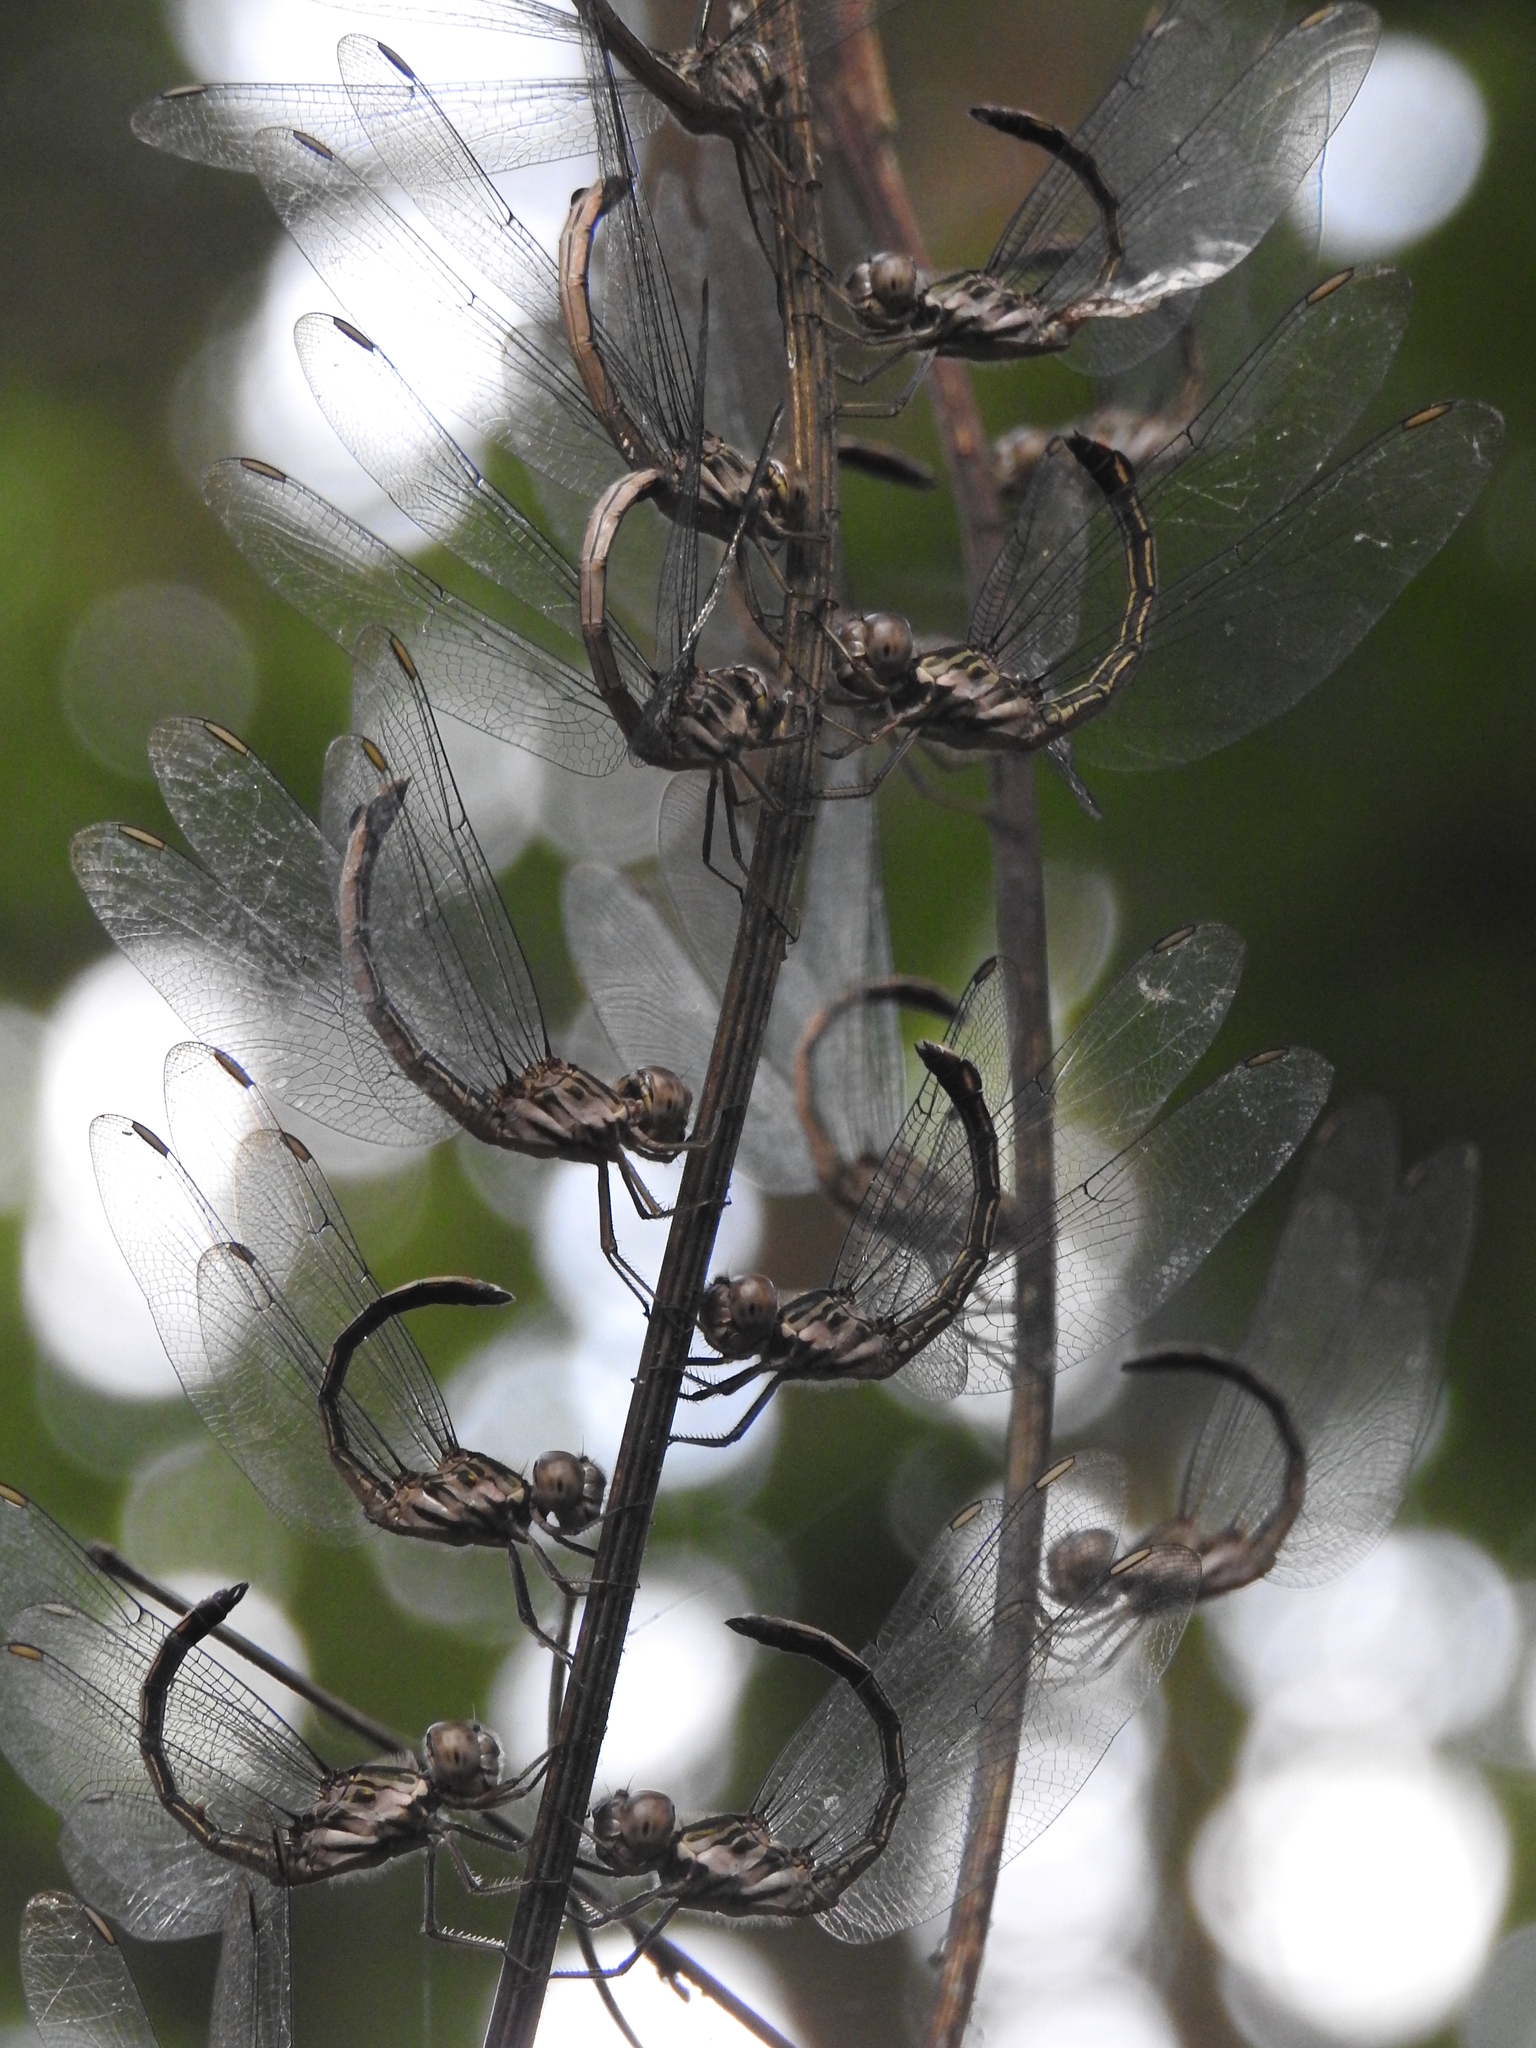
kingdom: Animalia
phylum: Arthropoda
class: Insecta
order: Odonata
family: Libellulidae
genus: Cratilla
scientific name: Cratilla lineata
